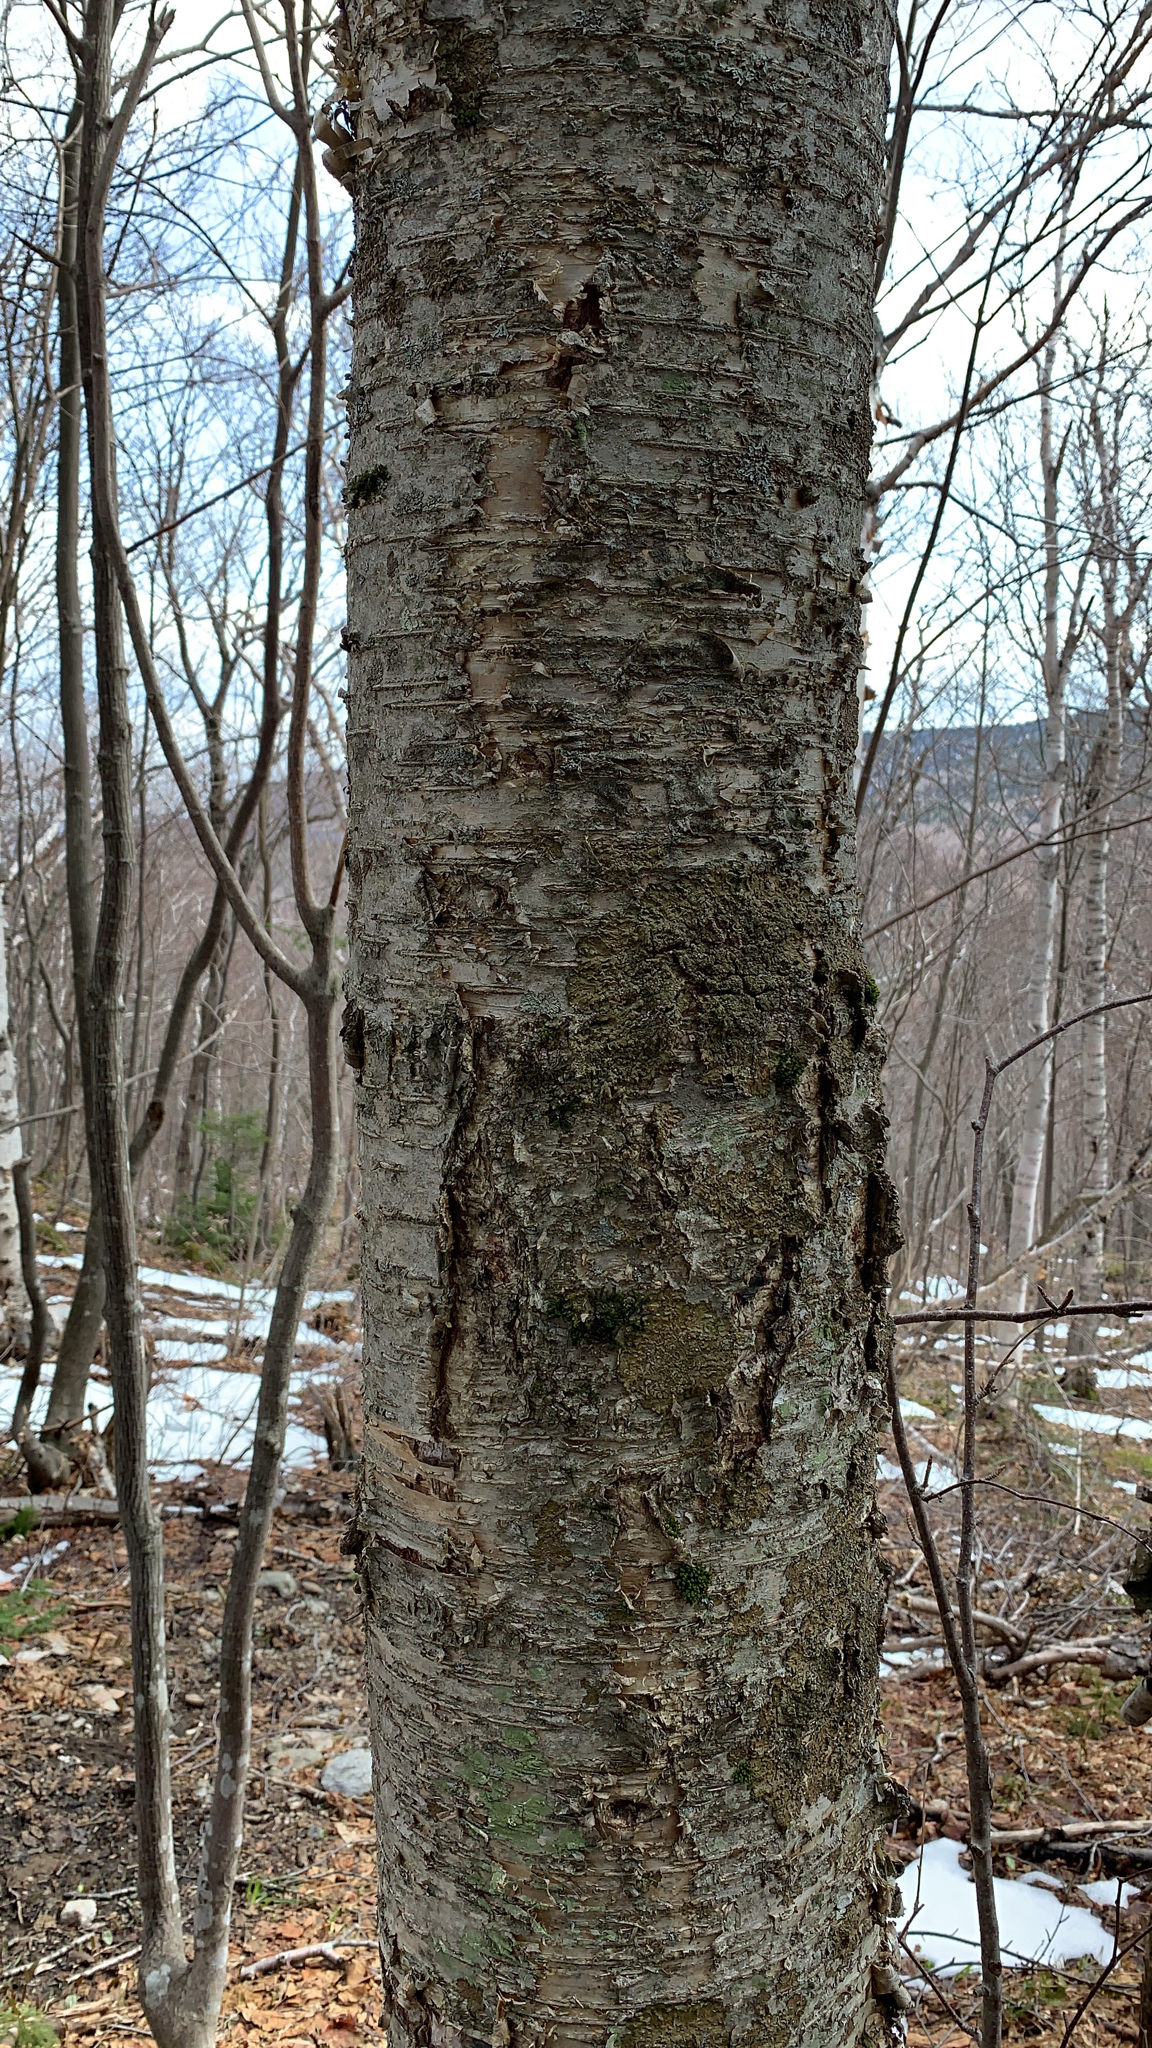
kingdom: Plantae
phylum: Tracheophyta
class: Magnoliopsida
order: Fagales
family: Betulaceae
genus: Betula
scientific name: Betula alleghaniensis
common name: Yellow birch
